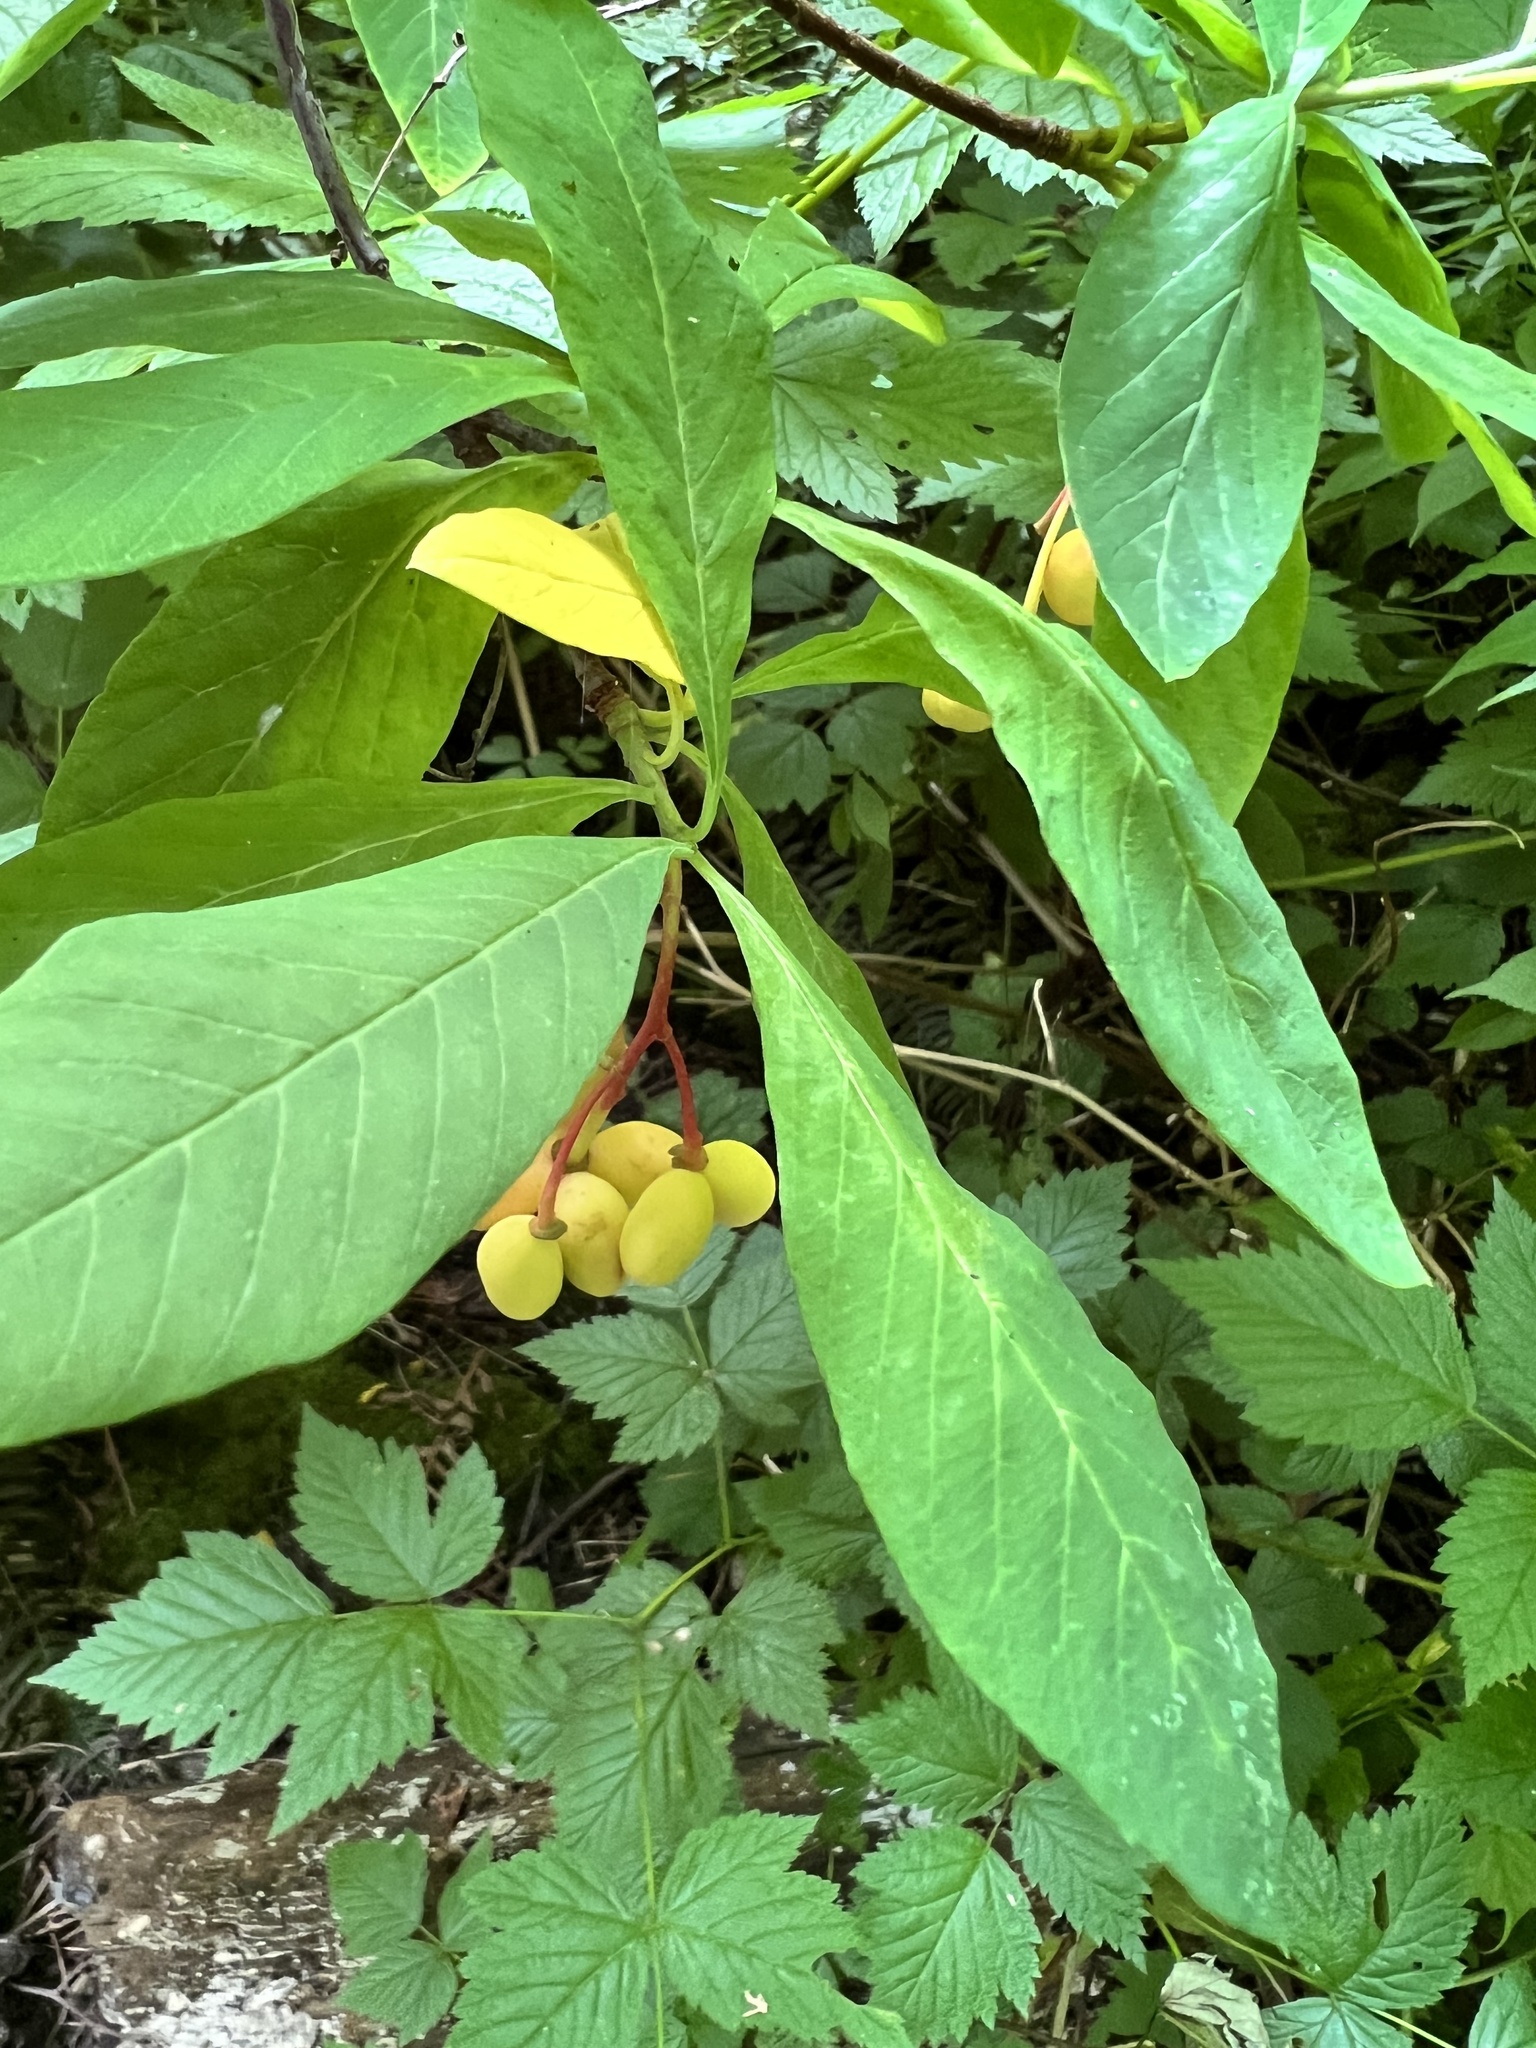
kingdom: Plantae
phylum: Tracheophyta
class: Magnoliopsida
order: Rosales
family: Rosaceae
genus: Oemleria
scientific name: Oemleria cerasiformis
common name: Osoberry
